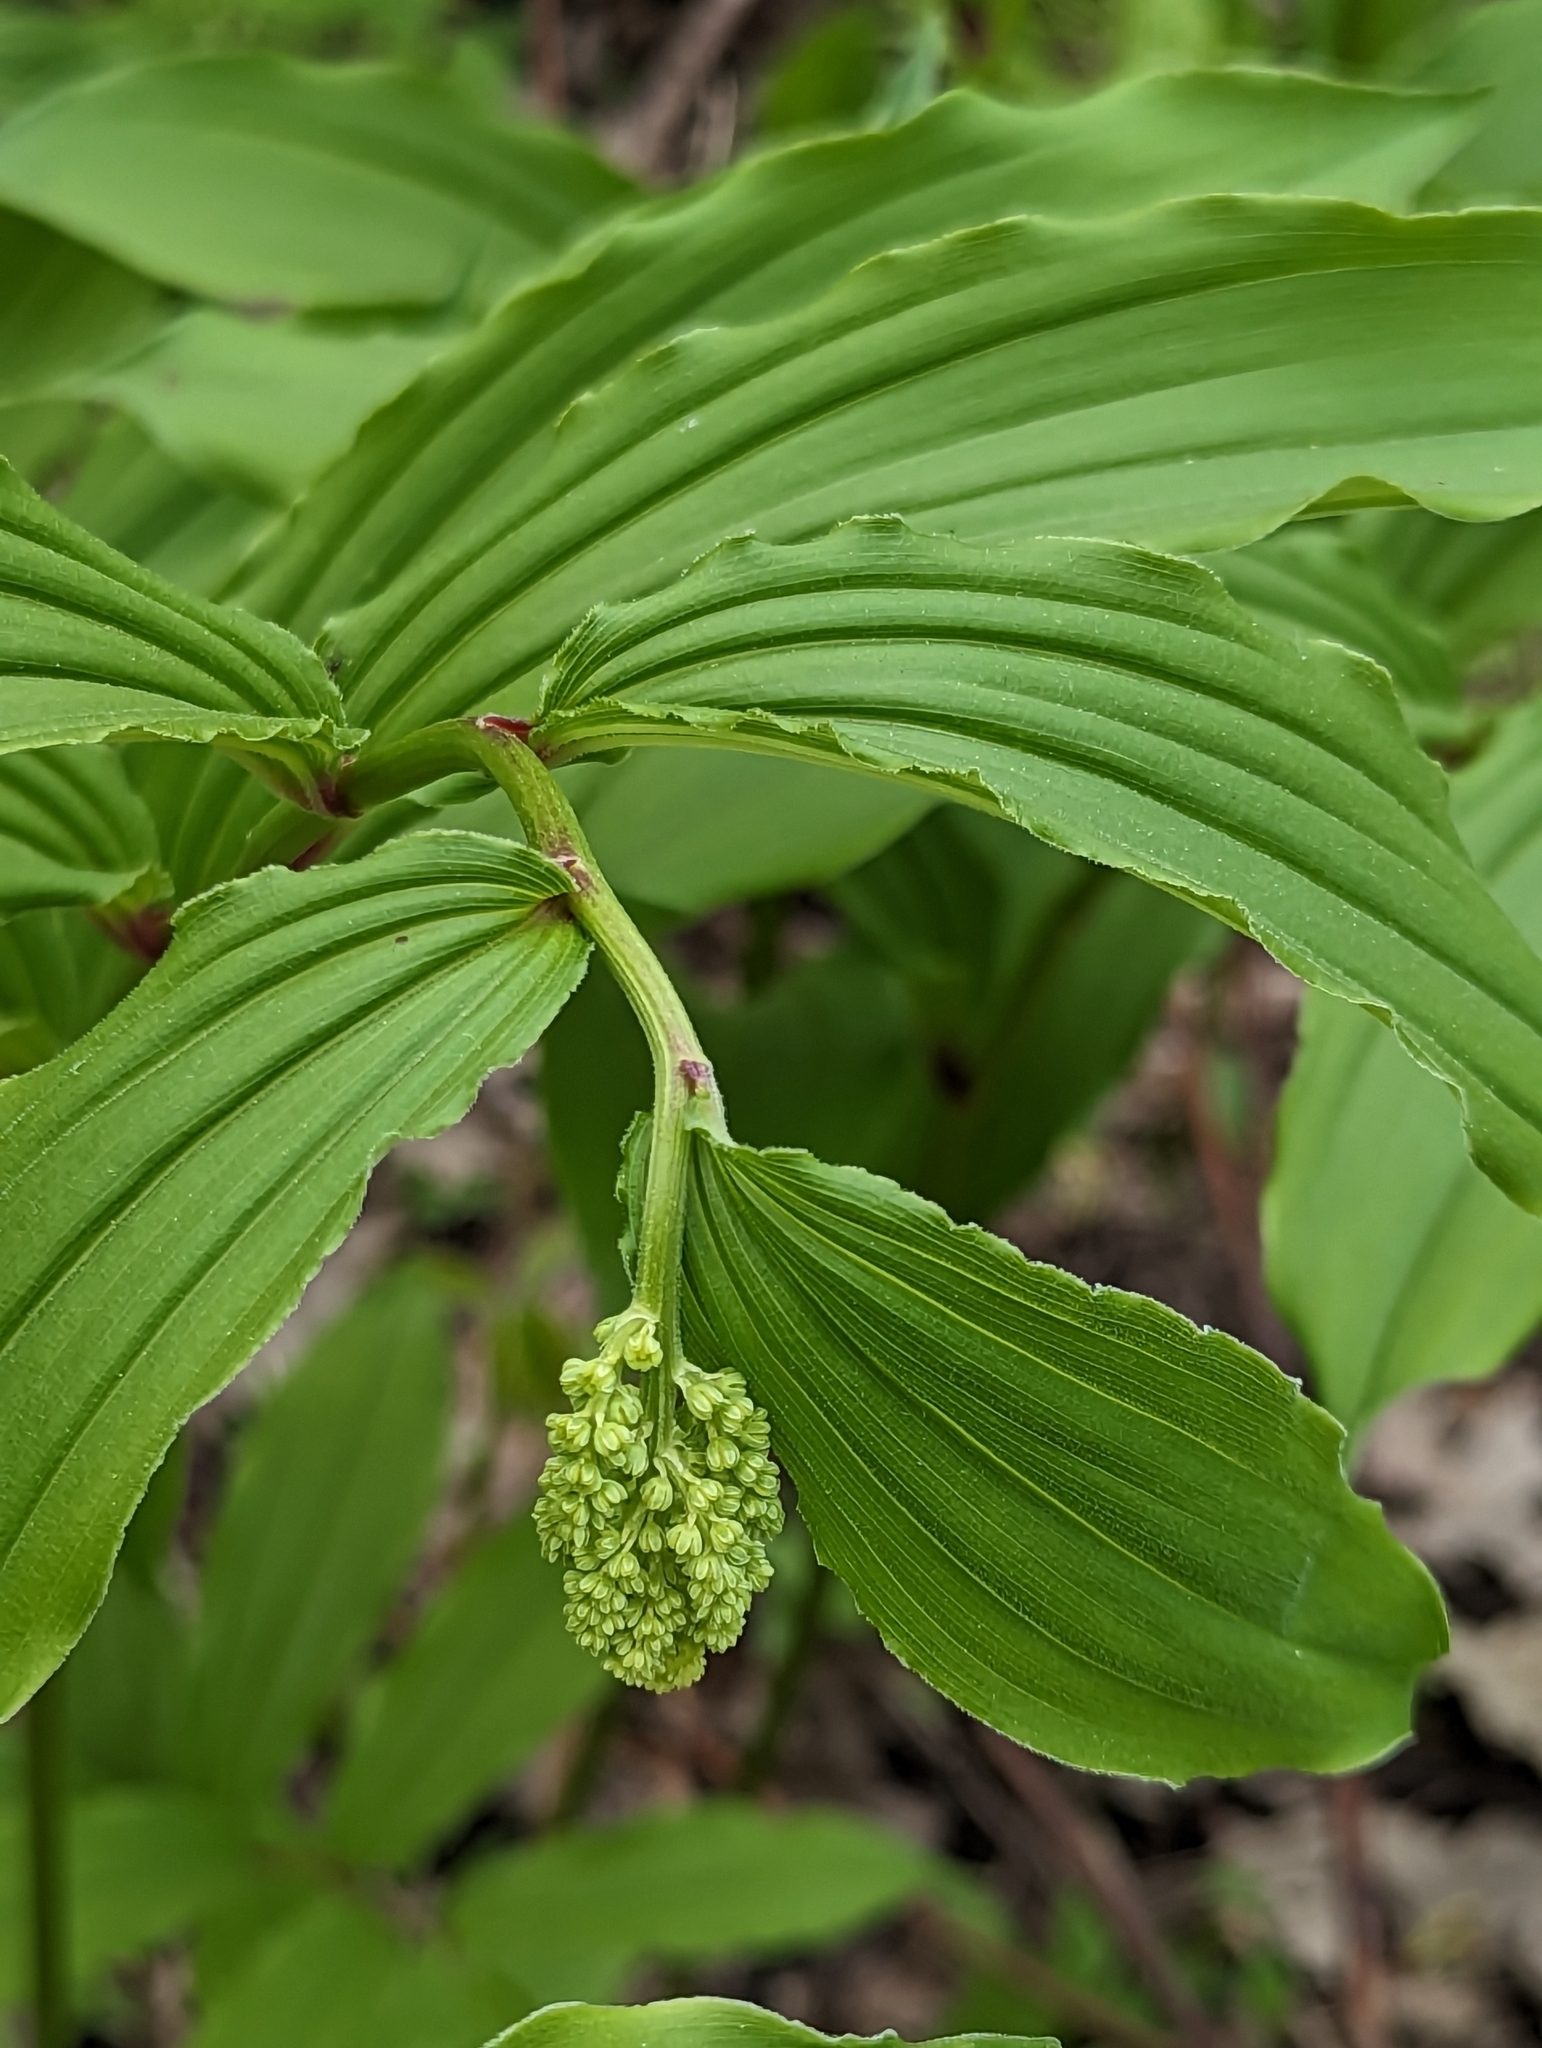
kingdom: Plantae
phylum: Tracheophyta
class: Liliopsida
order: Asparagales
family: Asparagaceae
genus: Maianthemum
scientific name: Maianthemum racemosum
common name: False spikenard
